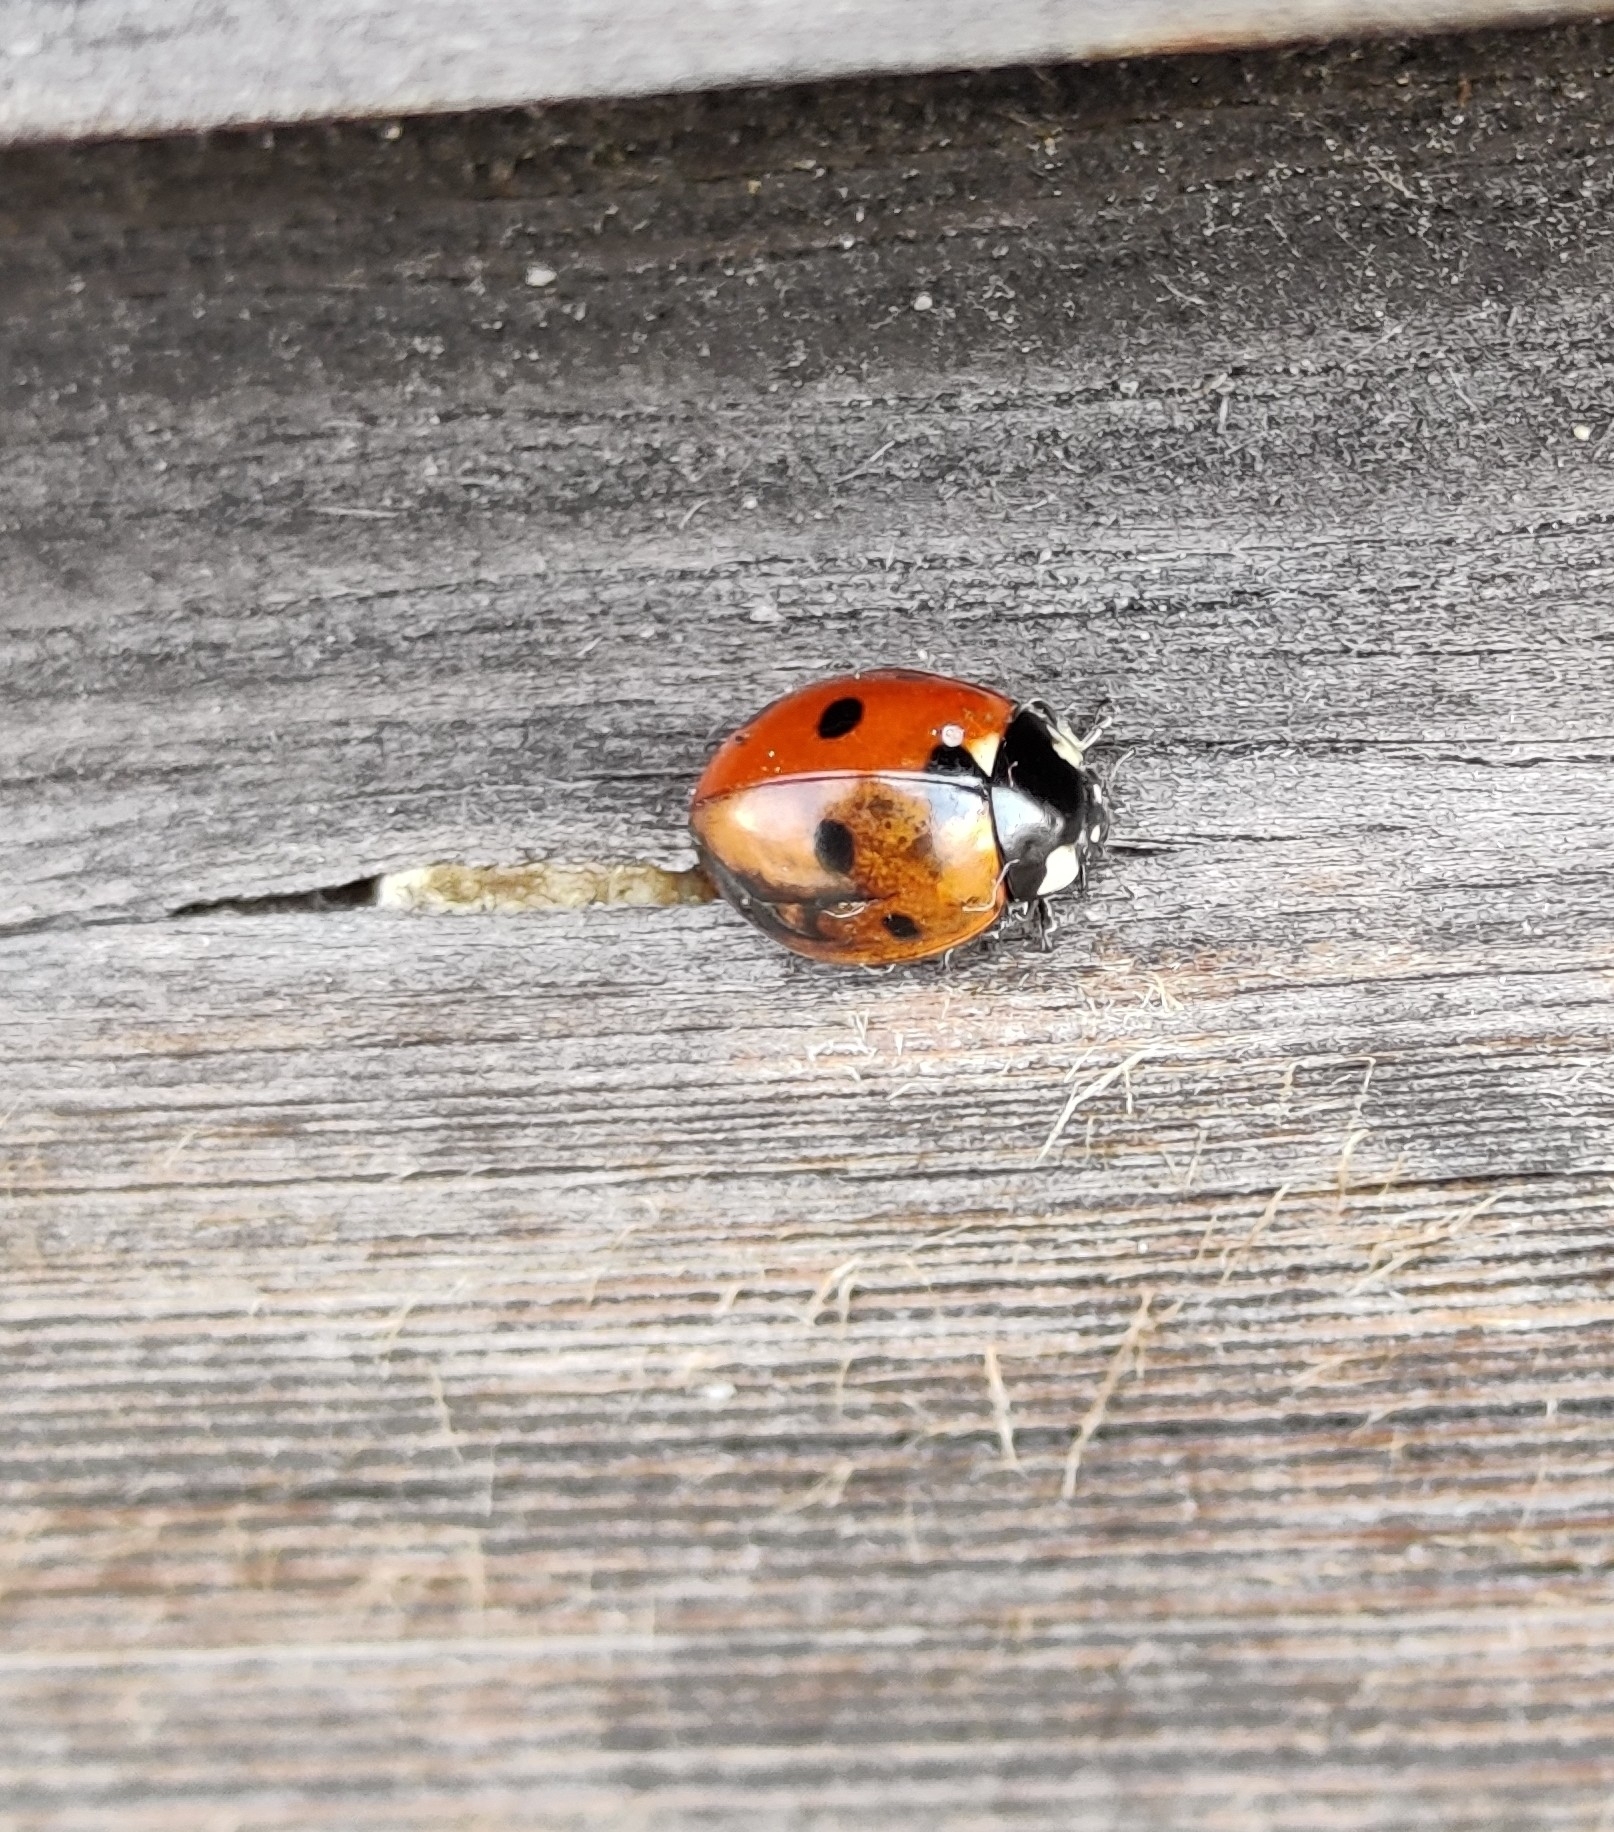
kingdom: Animalia
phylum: Arthropoda
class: Insecta
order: Coleoptera
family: Coccinellidae
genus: Coccinella
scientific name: Coccinella septempunctata
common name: Sevenspotted lady beetle
